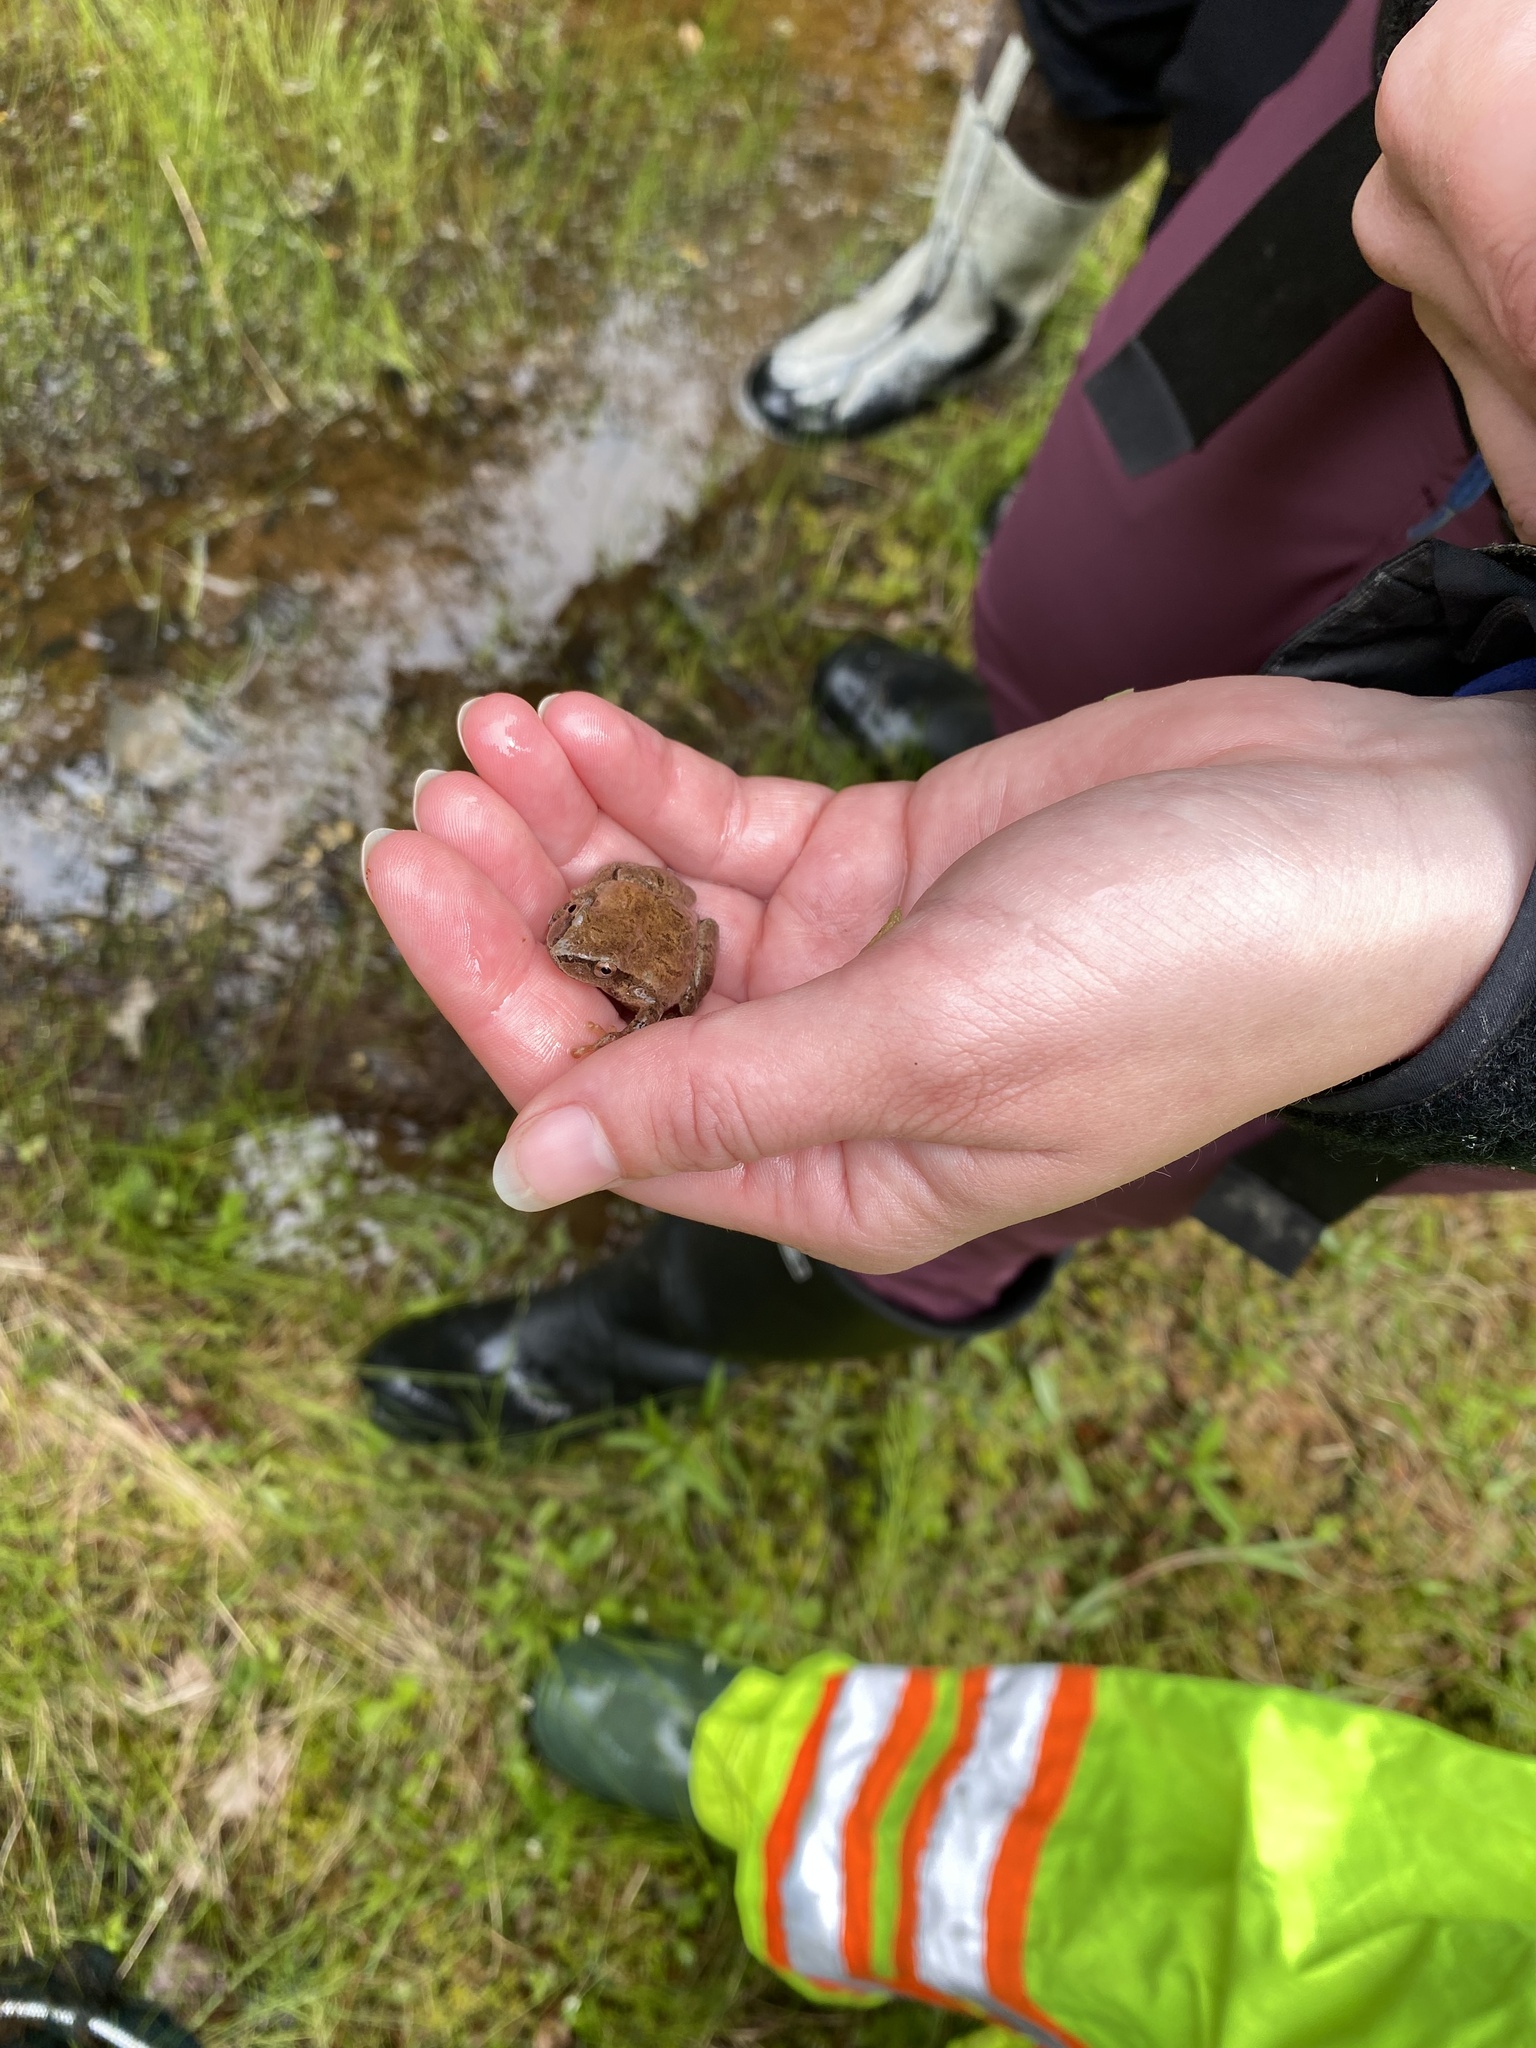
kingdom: Animalia
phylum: Chordata
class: Amphibia
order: Anura
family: Hylidae
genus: Pseudacris
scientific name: Pseudacris crucifer
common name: Spring peeper
